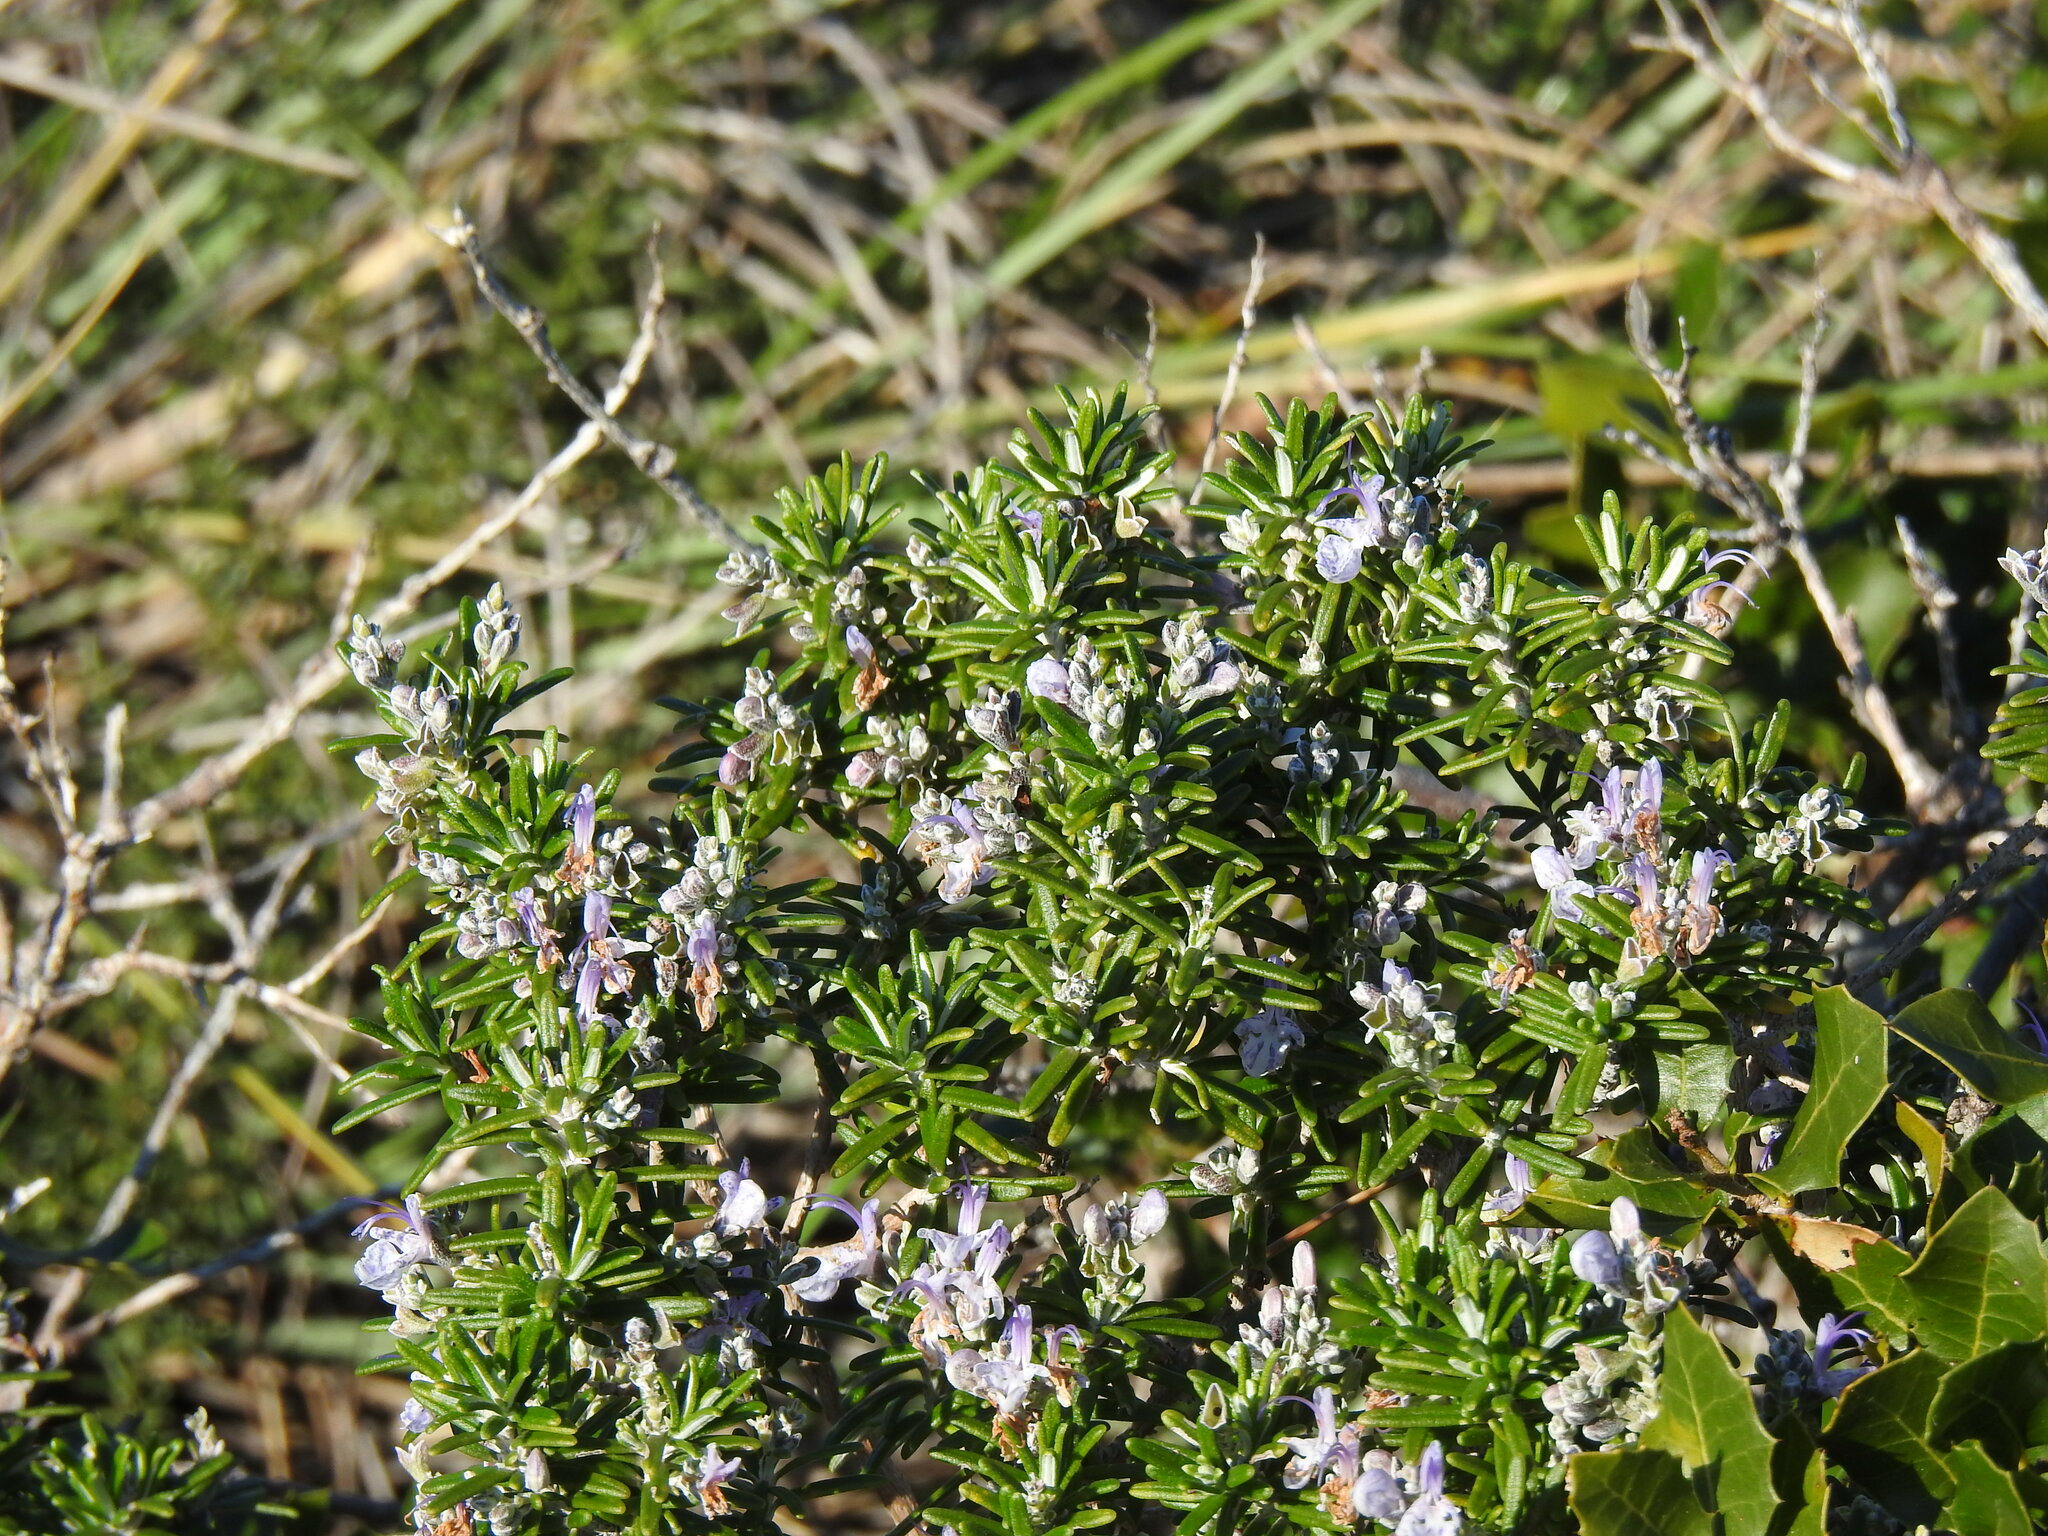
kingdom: Plantae
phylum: Tracheophyta
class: Magnoliopsida
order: Lamiales
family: Lamiaceae
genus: Salvia
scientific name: Salvia rosmarinus
